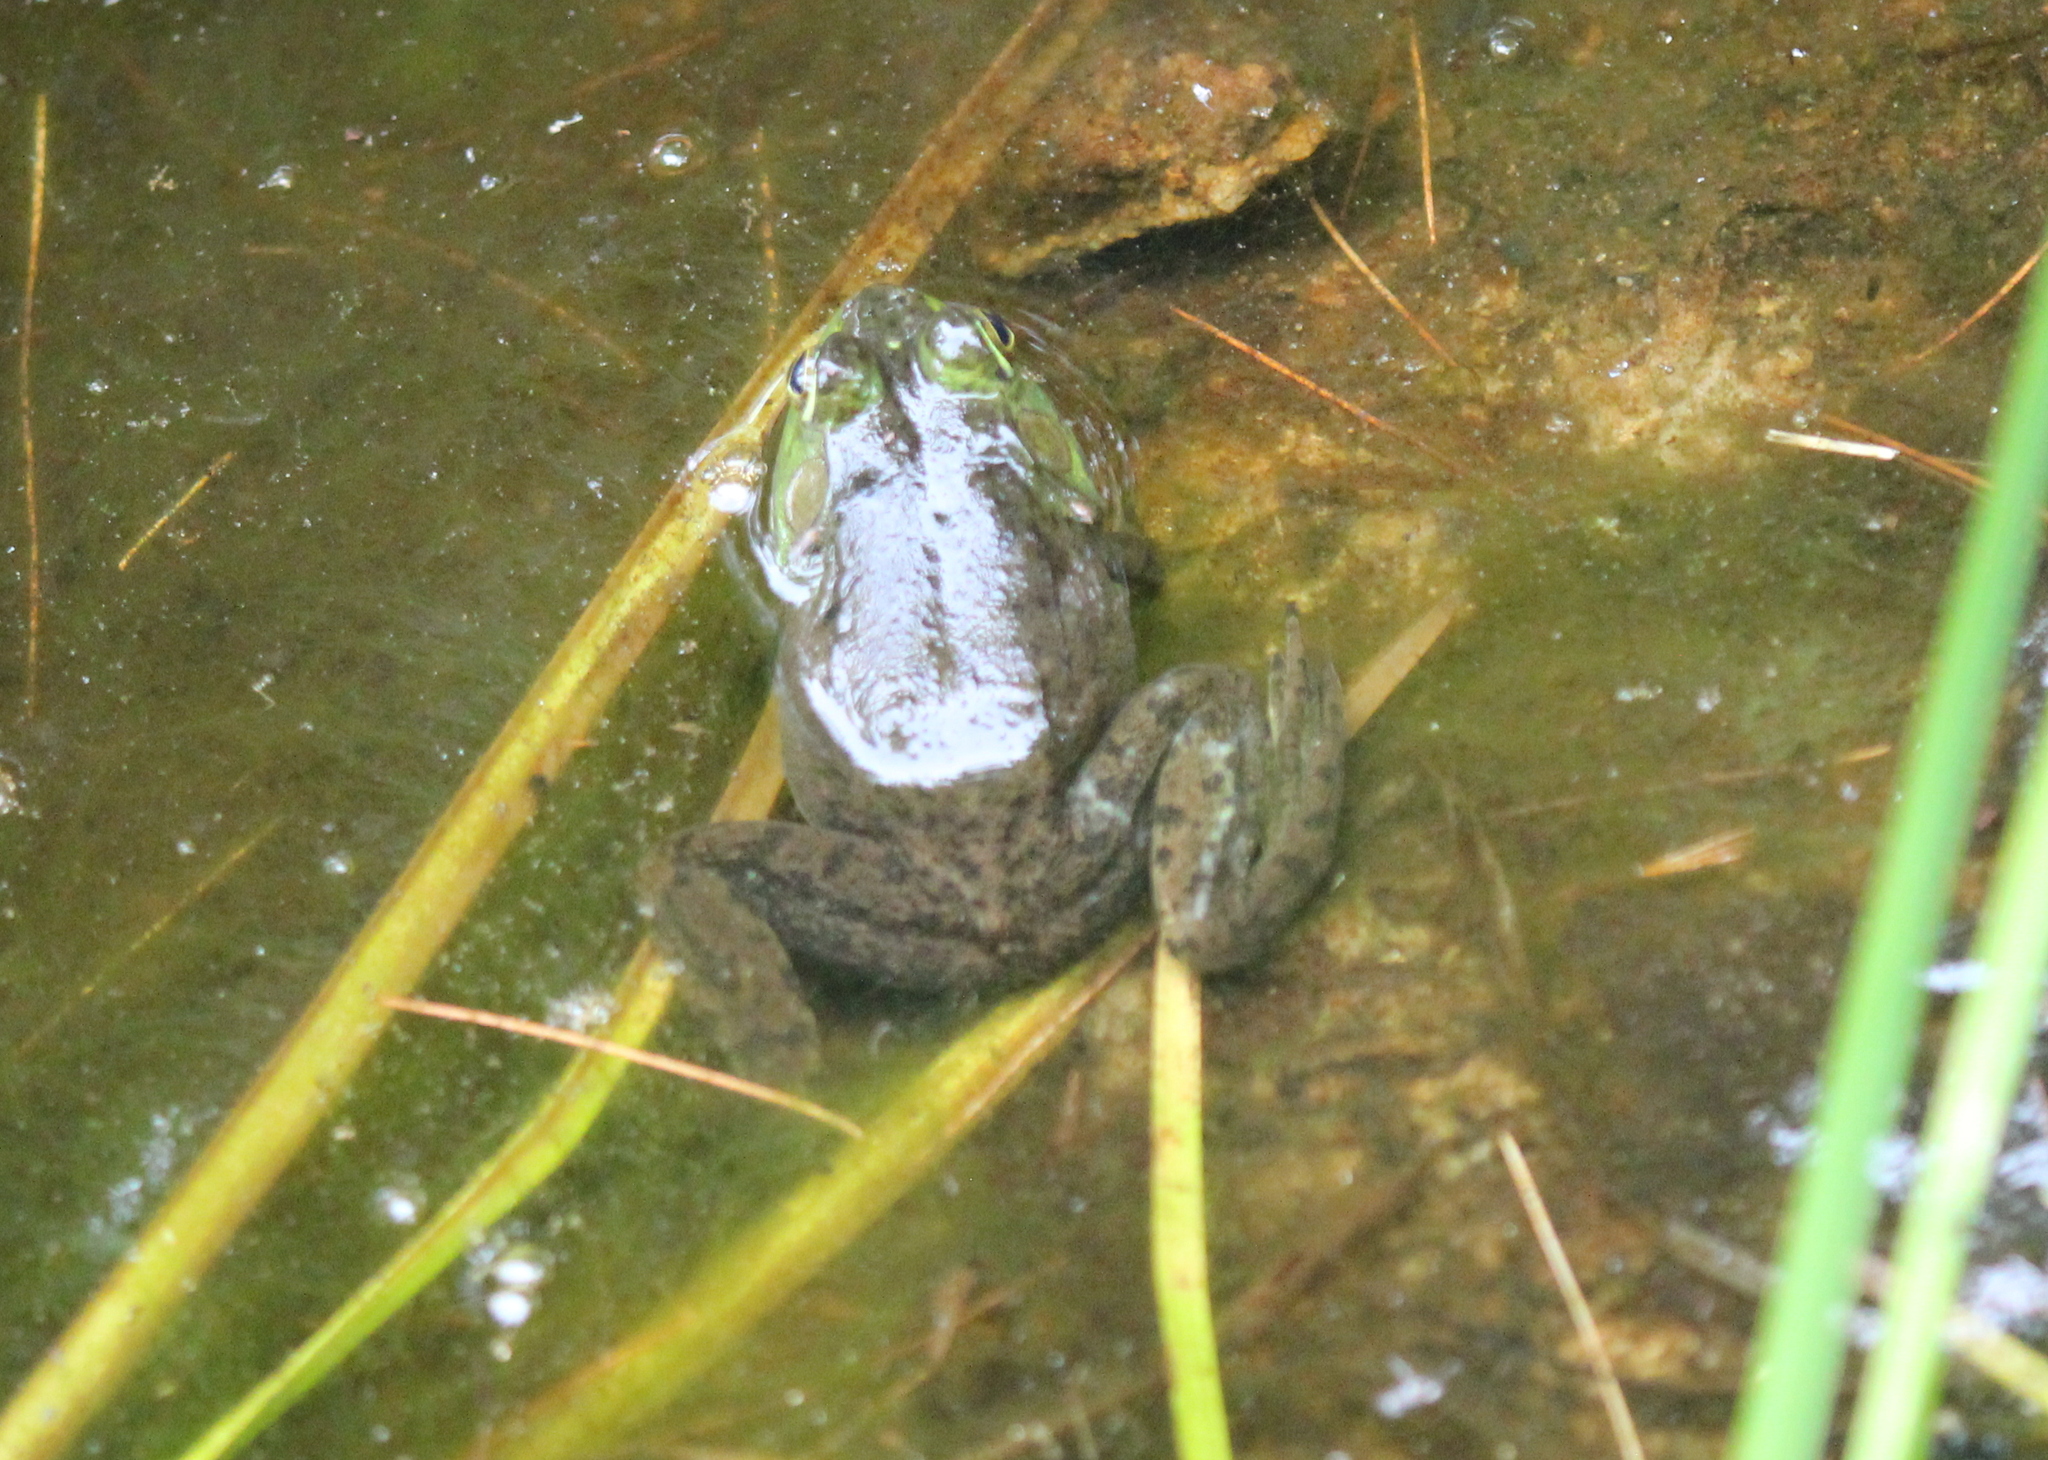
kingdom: Animalia
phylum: Chordata
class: Amphibia
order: Anura
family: Ranidae
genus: Lithobates
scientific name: Lithobates catesbeianus
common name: American bullfrog
